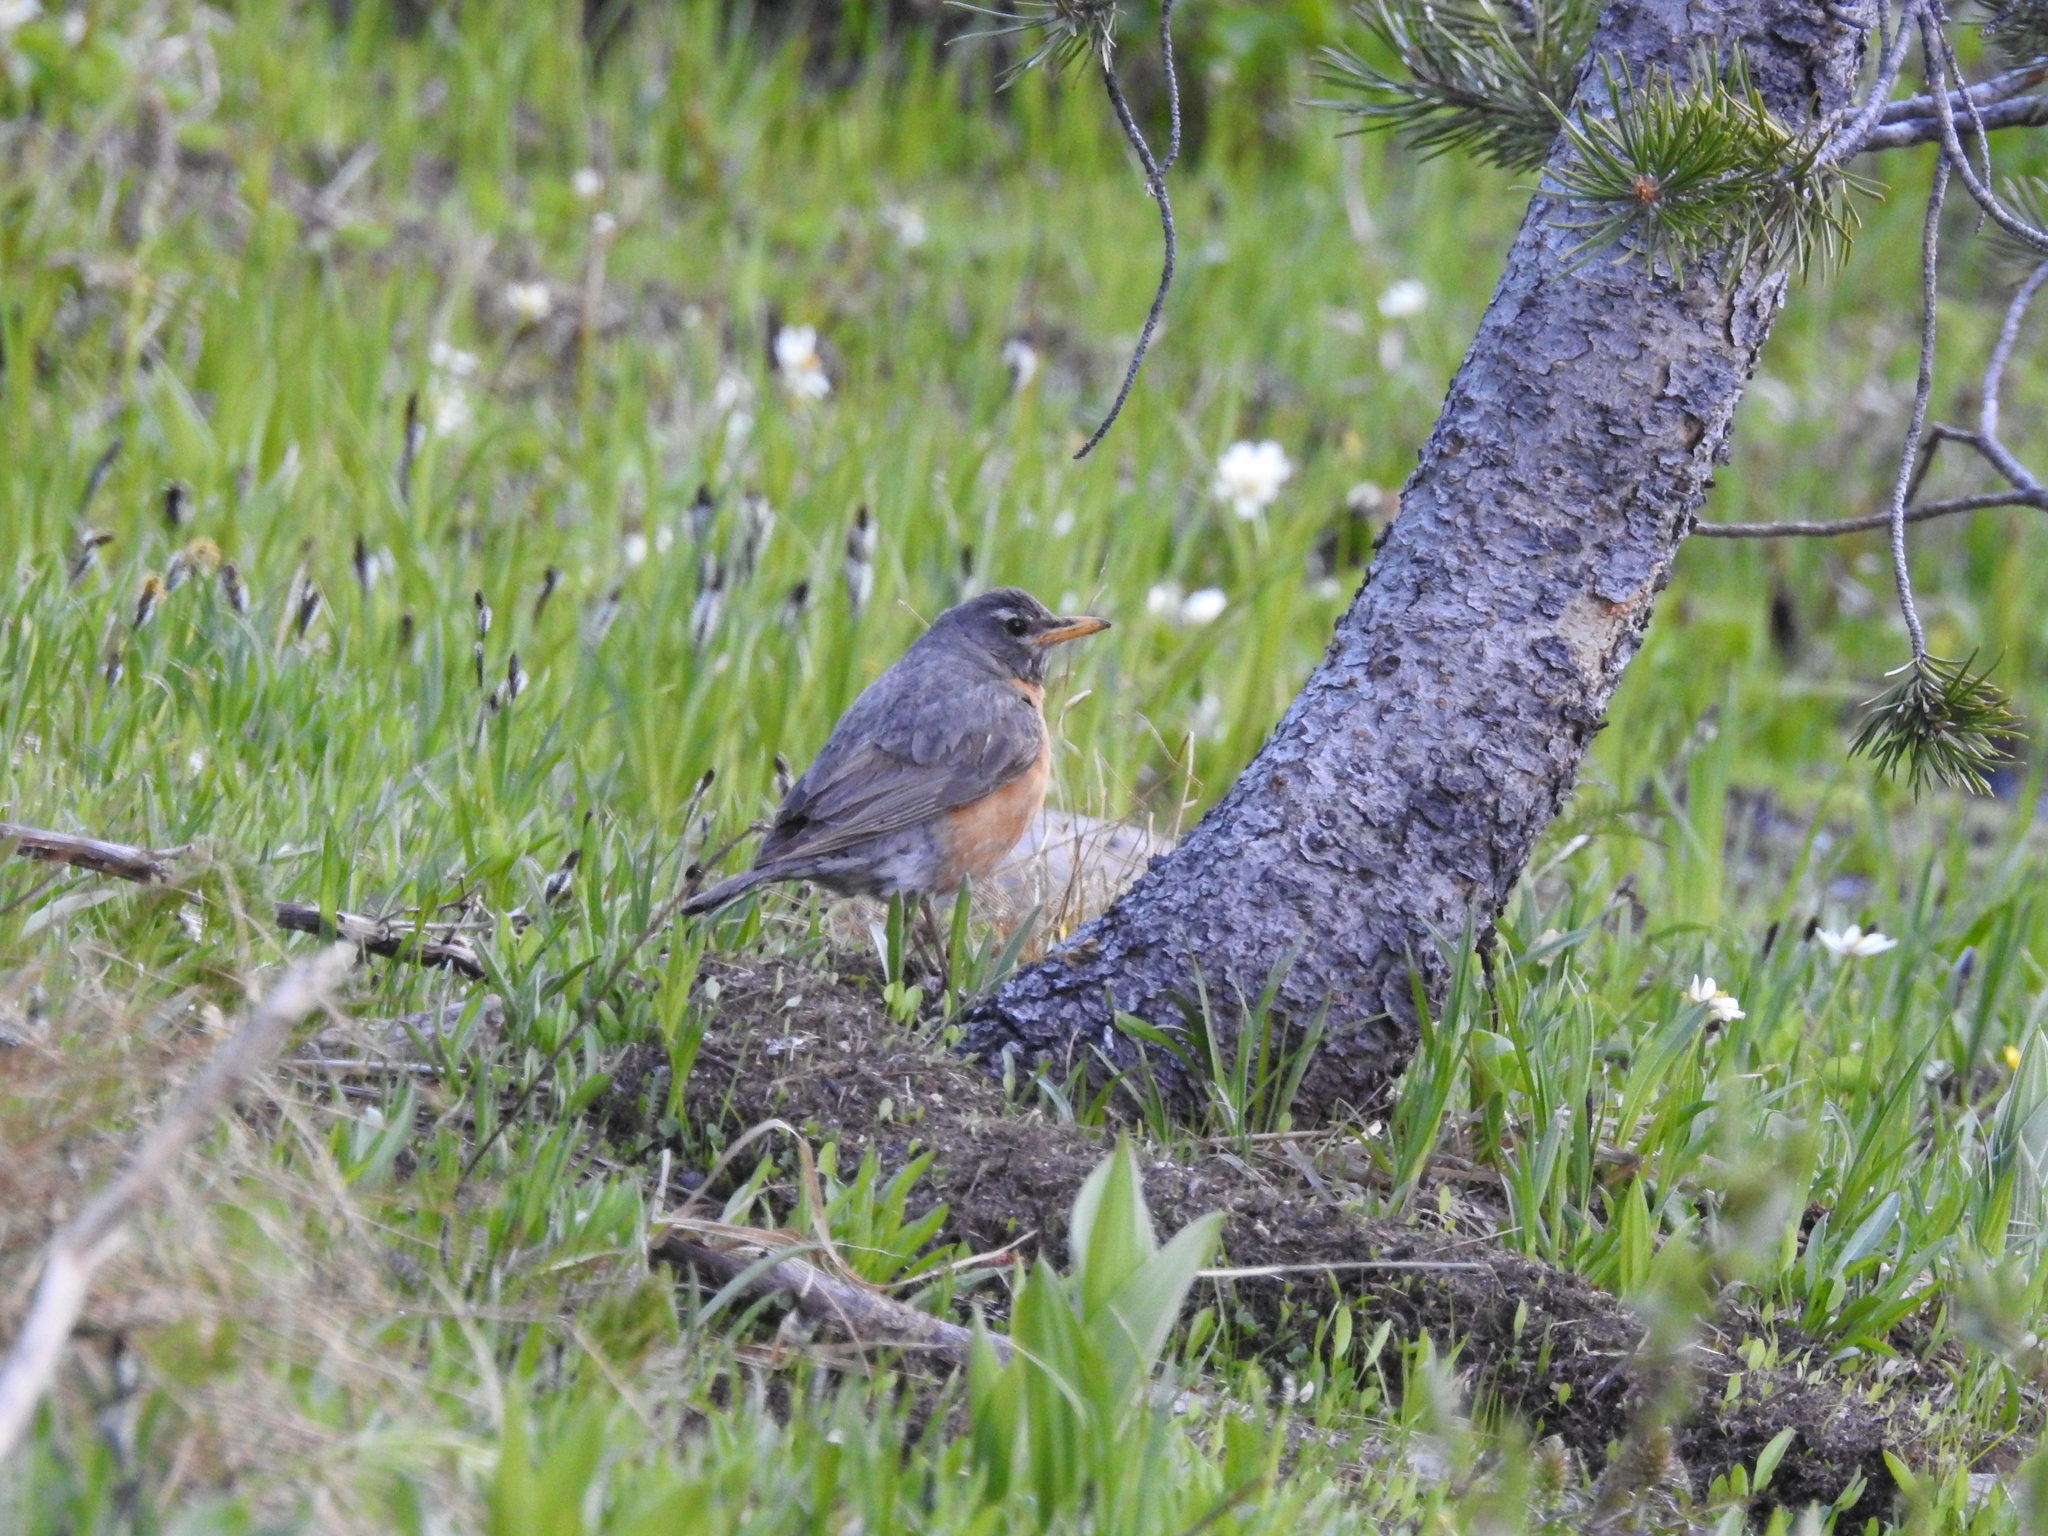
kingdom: Animalia
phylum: Chordata
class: Aves
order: Passeriformes
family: Turdidae
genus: Turdus
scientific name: Turdus migratorius
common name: American robin
